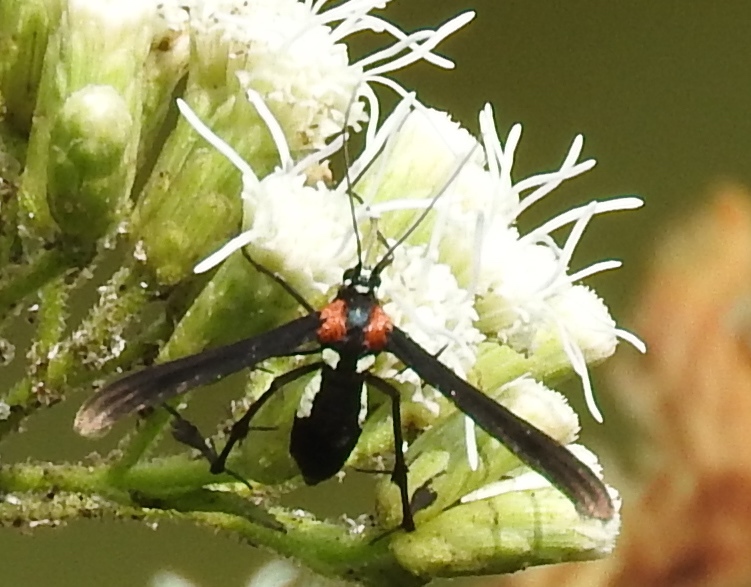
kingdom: Animalia
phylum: Arthropoda
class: Insecta
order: Lepidoptera
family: Pterophoridae
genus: Hellinsia
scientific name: Hellinsia chamelai
